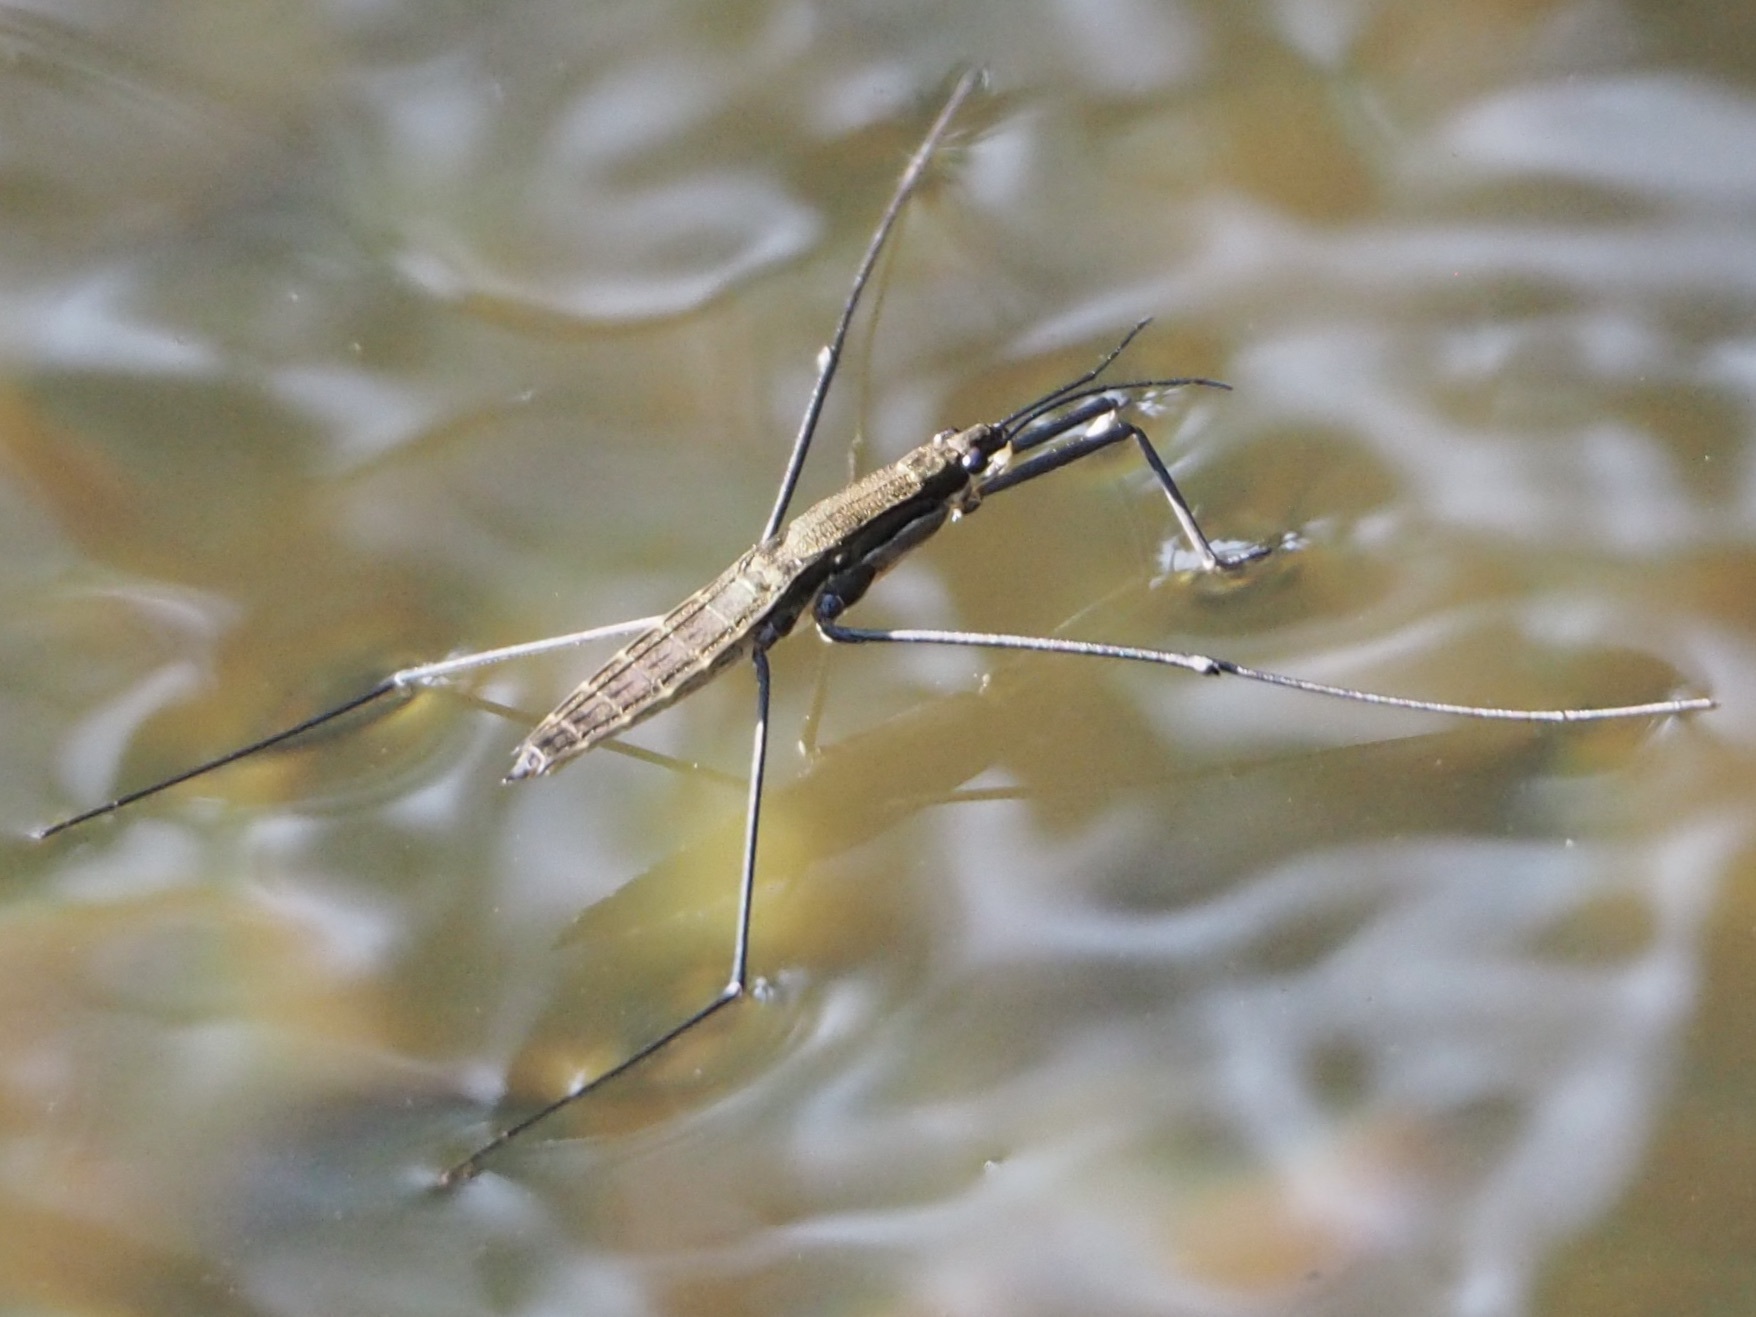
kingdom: Animalia
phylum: Arthropoda
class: Insecta
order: Hemiptera
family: Gerridae
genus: Aquarius
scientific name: Aquarius najas
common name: River skater
